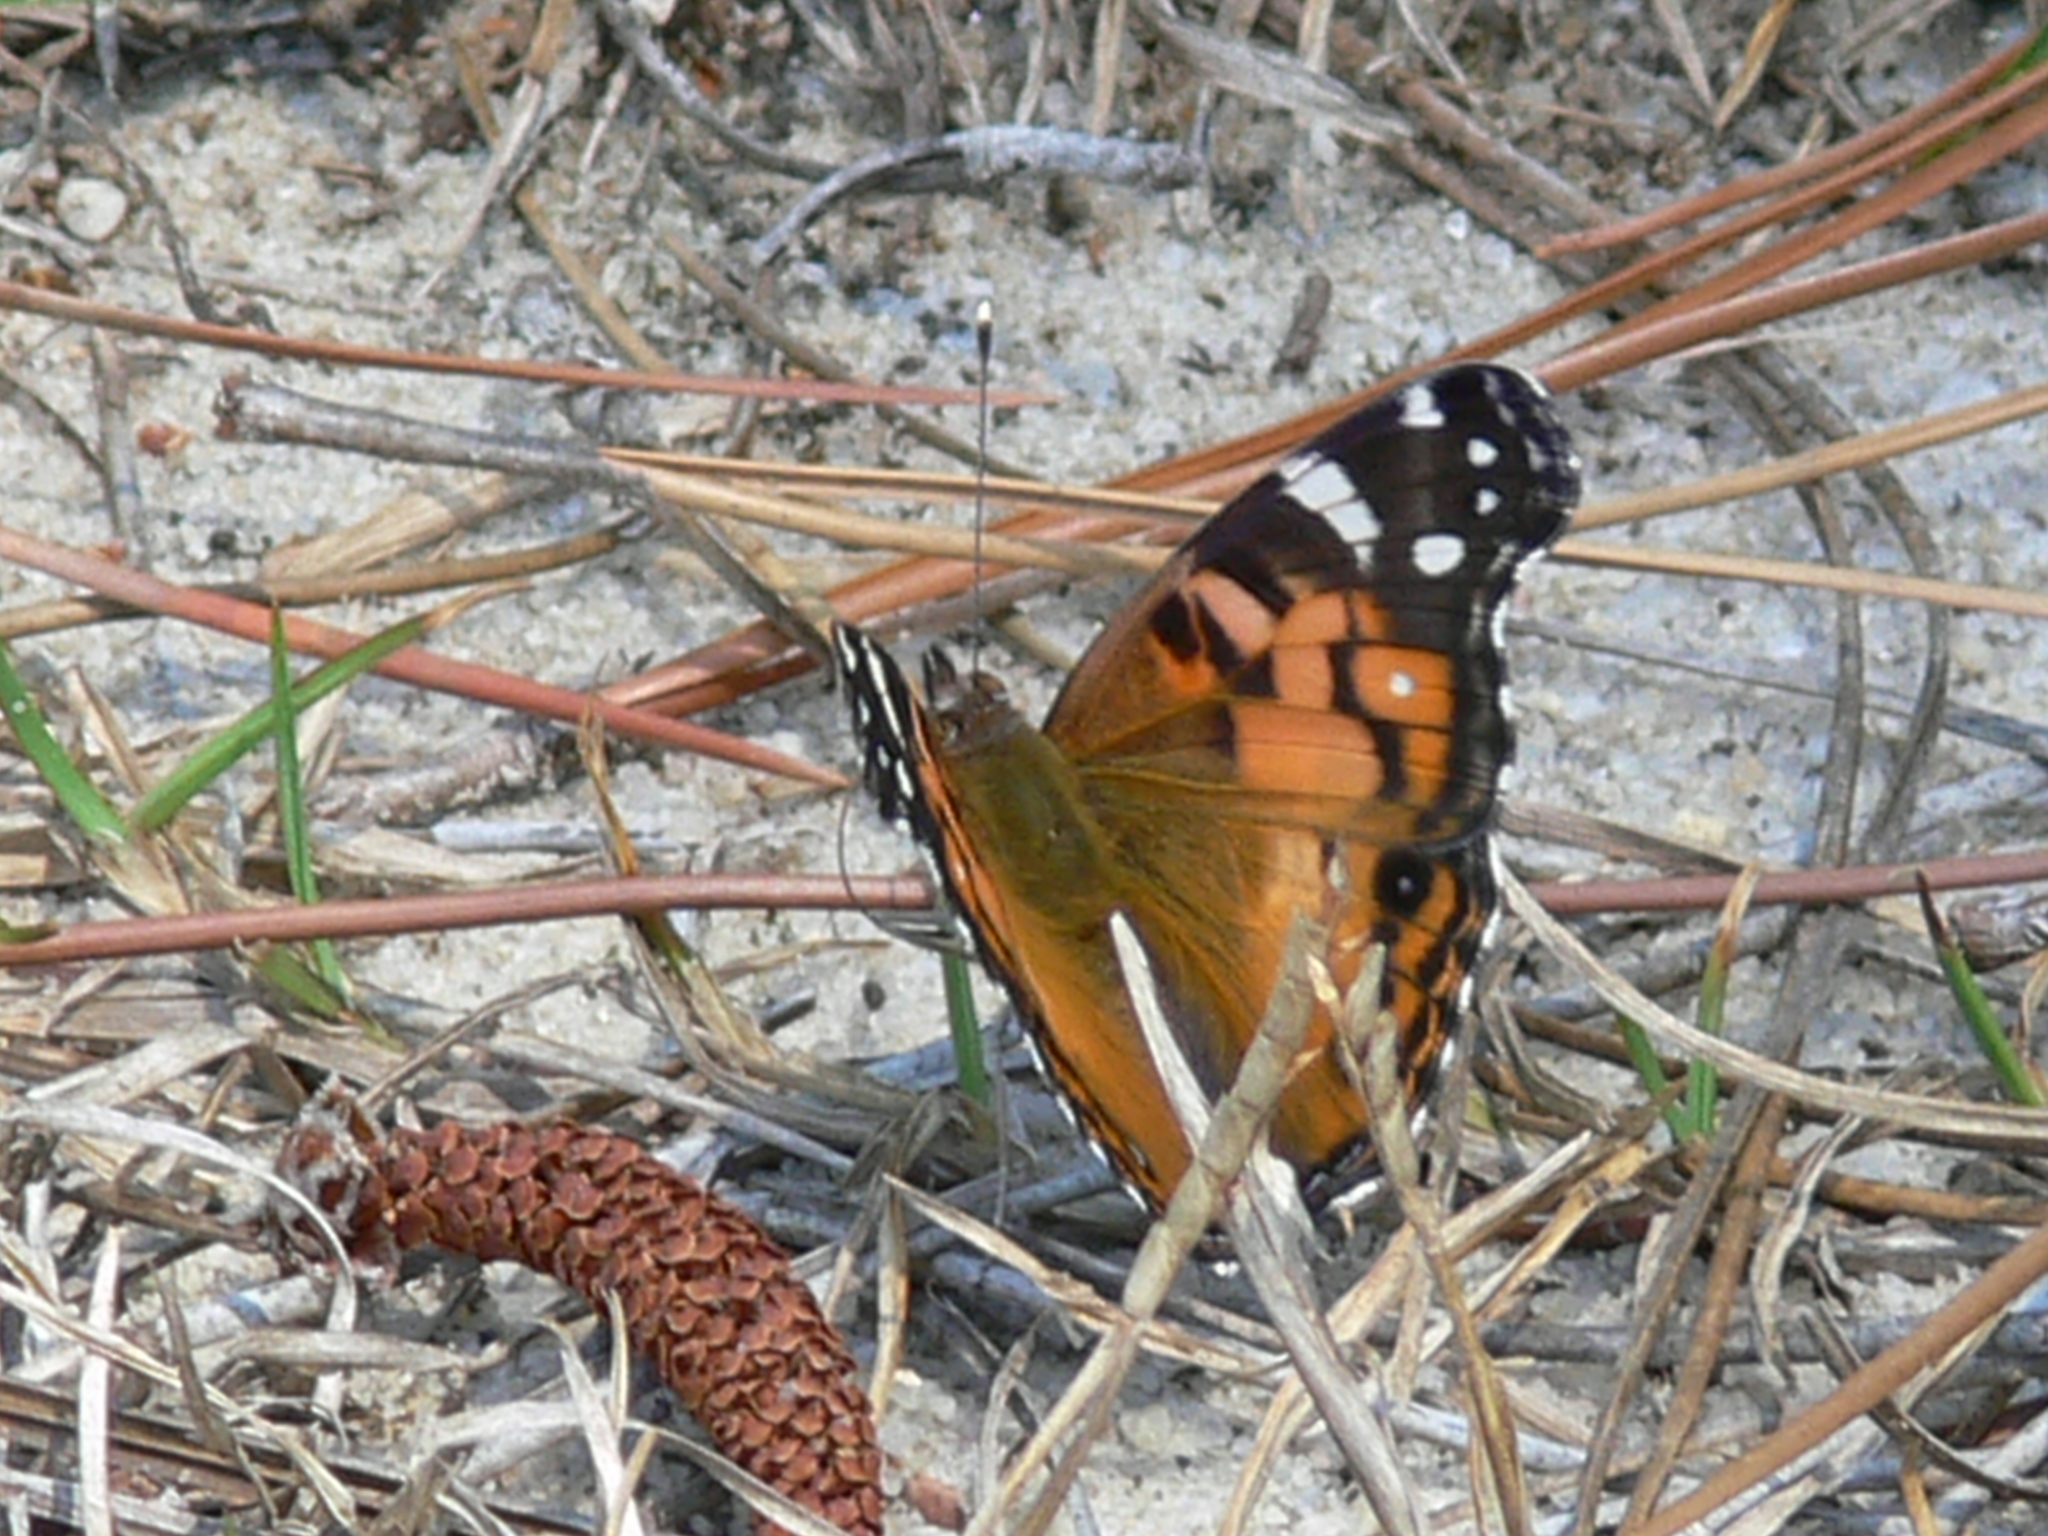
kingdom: Animalia
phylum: Arthropoda
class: Insecta
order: Lepidoptera
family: Nymphalidae
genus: Vanessa
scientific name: Vanessa virginiensis
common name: American lady
